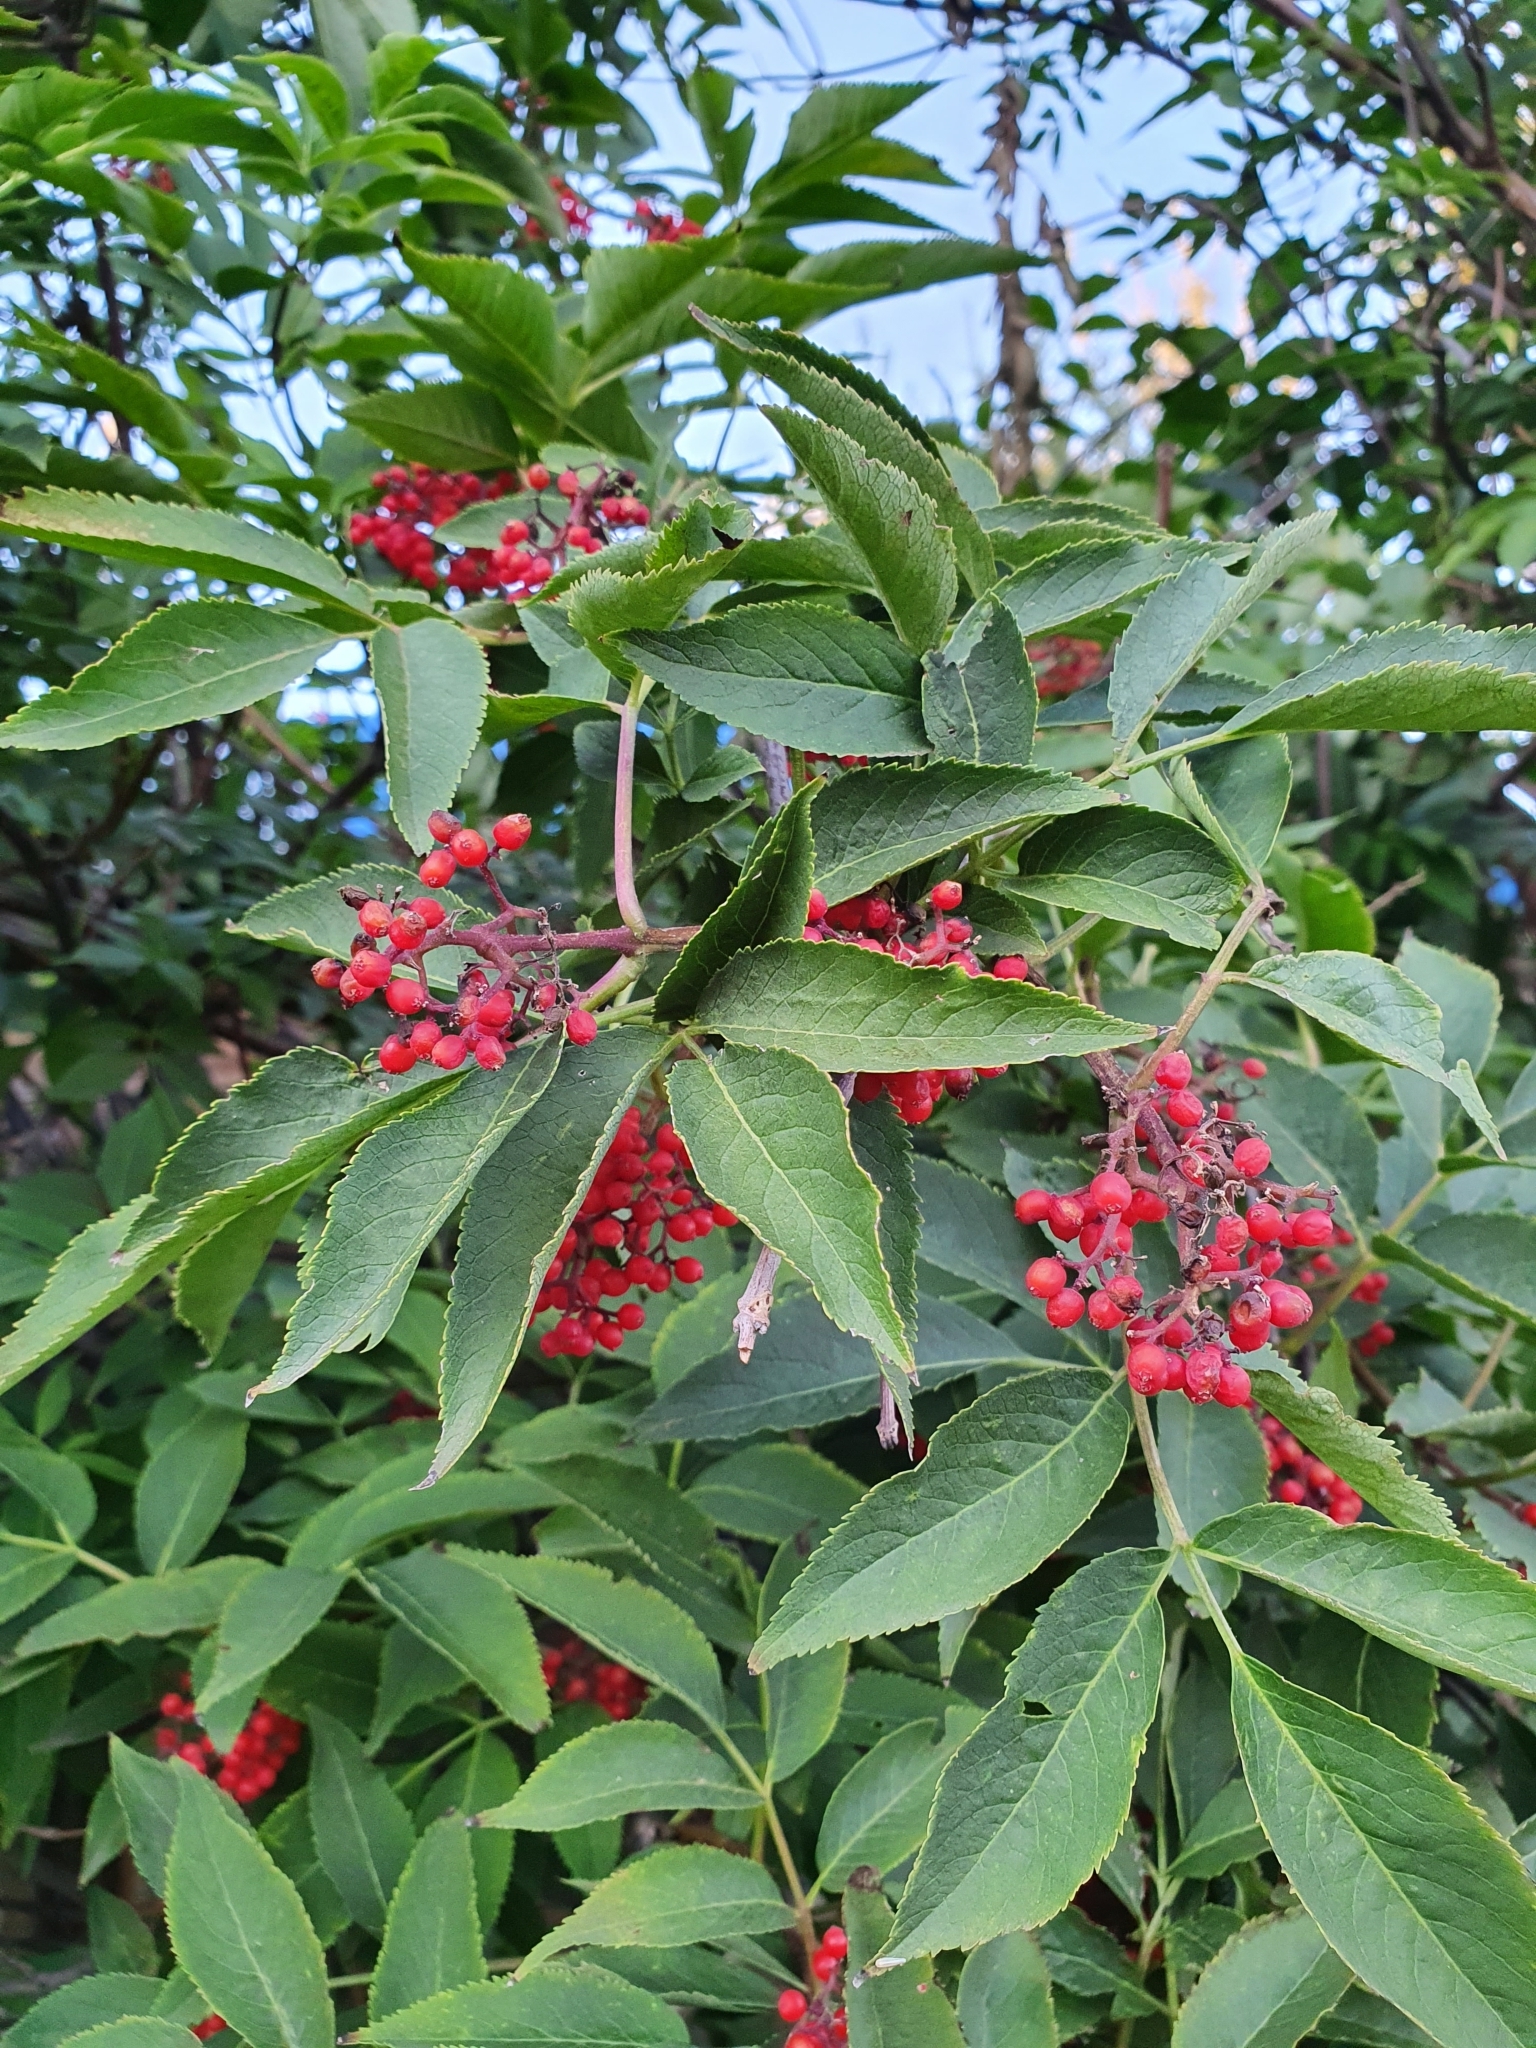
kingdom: Plantae
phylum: Tracheophyta
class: Magnoliopsida
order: Dipsacales
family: Viburnaceae
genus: Sambucus
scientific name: Sambucus racemosa
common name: Red-berried elder
